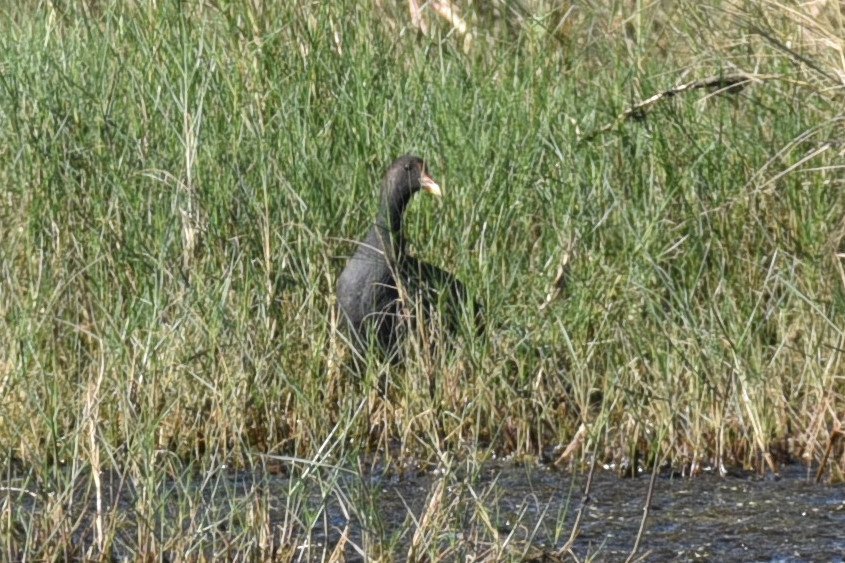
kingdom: Animalia
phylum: Chordata
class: Aves
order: Gruiformes
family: Rallidae
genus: Gallinula
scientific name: Gallinula chloropus
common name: Common moorhen
